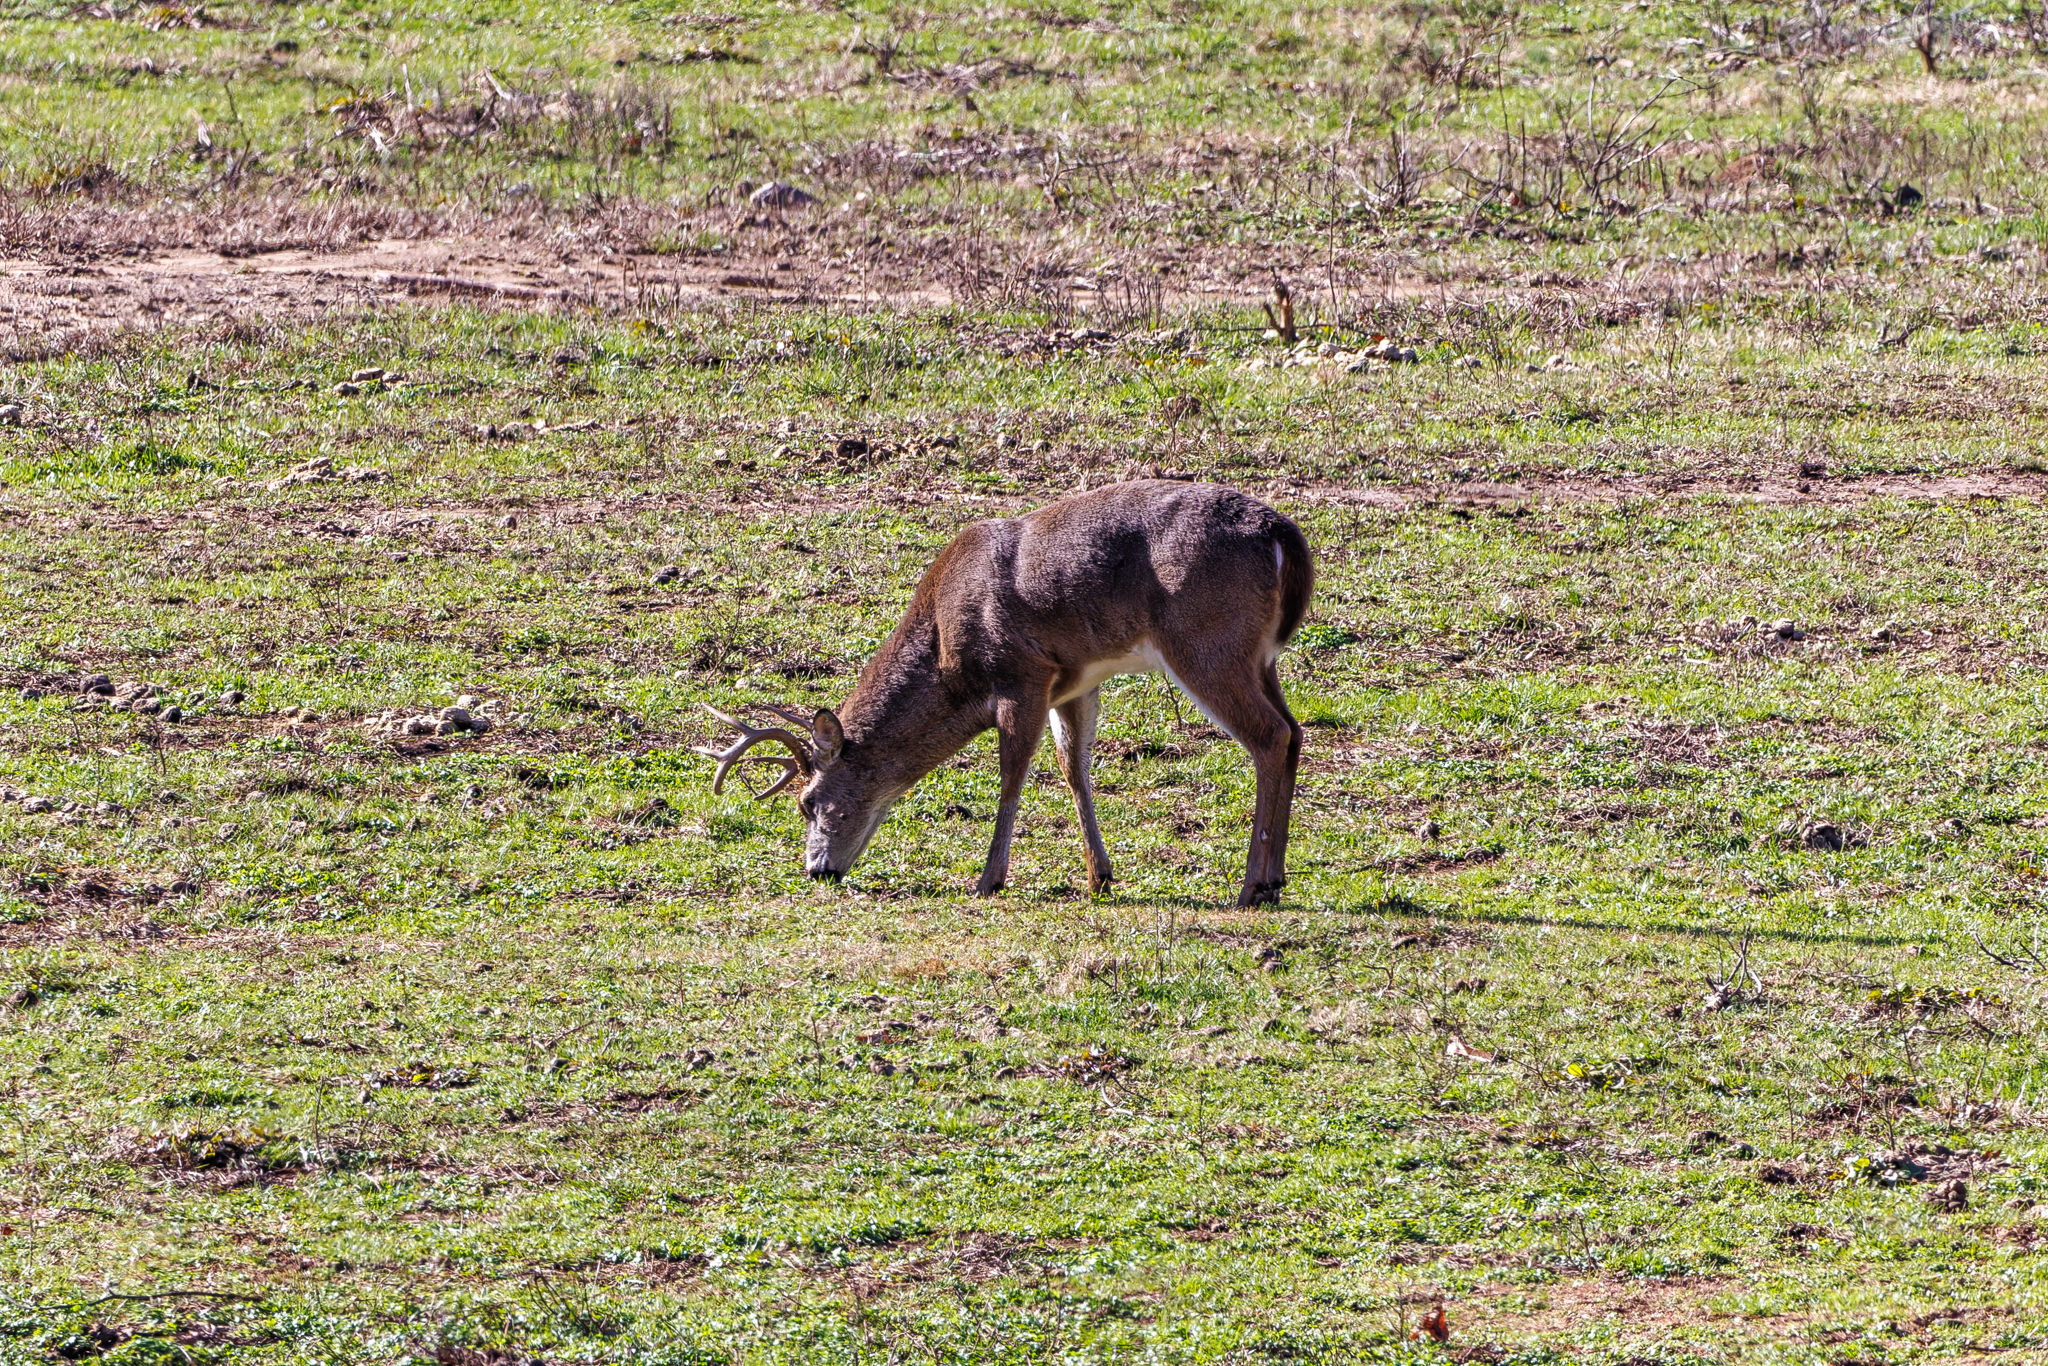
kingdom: Animalia
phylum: Chordata
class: Mammalia
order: Artiodactyla
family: Cervidae
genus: Odocoileus
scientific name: Odocoileus virginianus
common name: White-tailed deer
